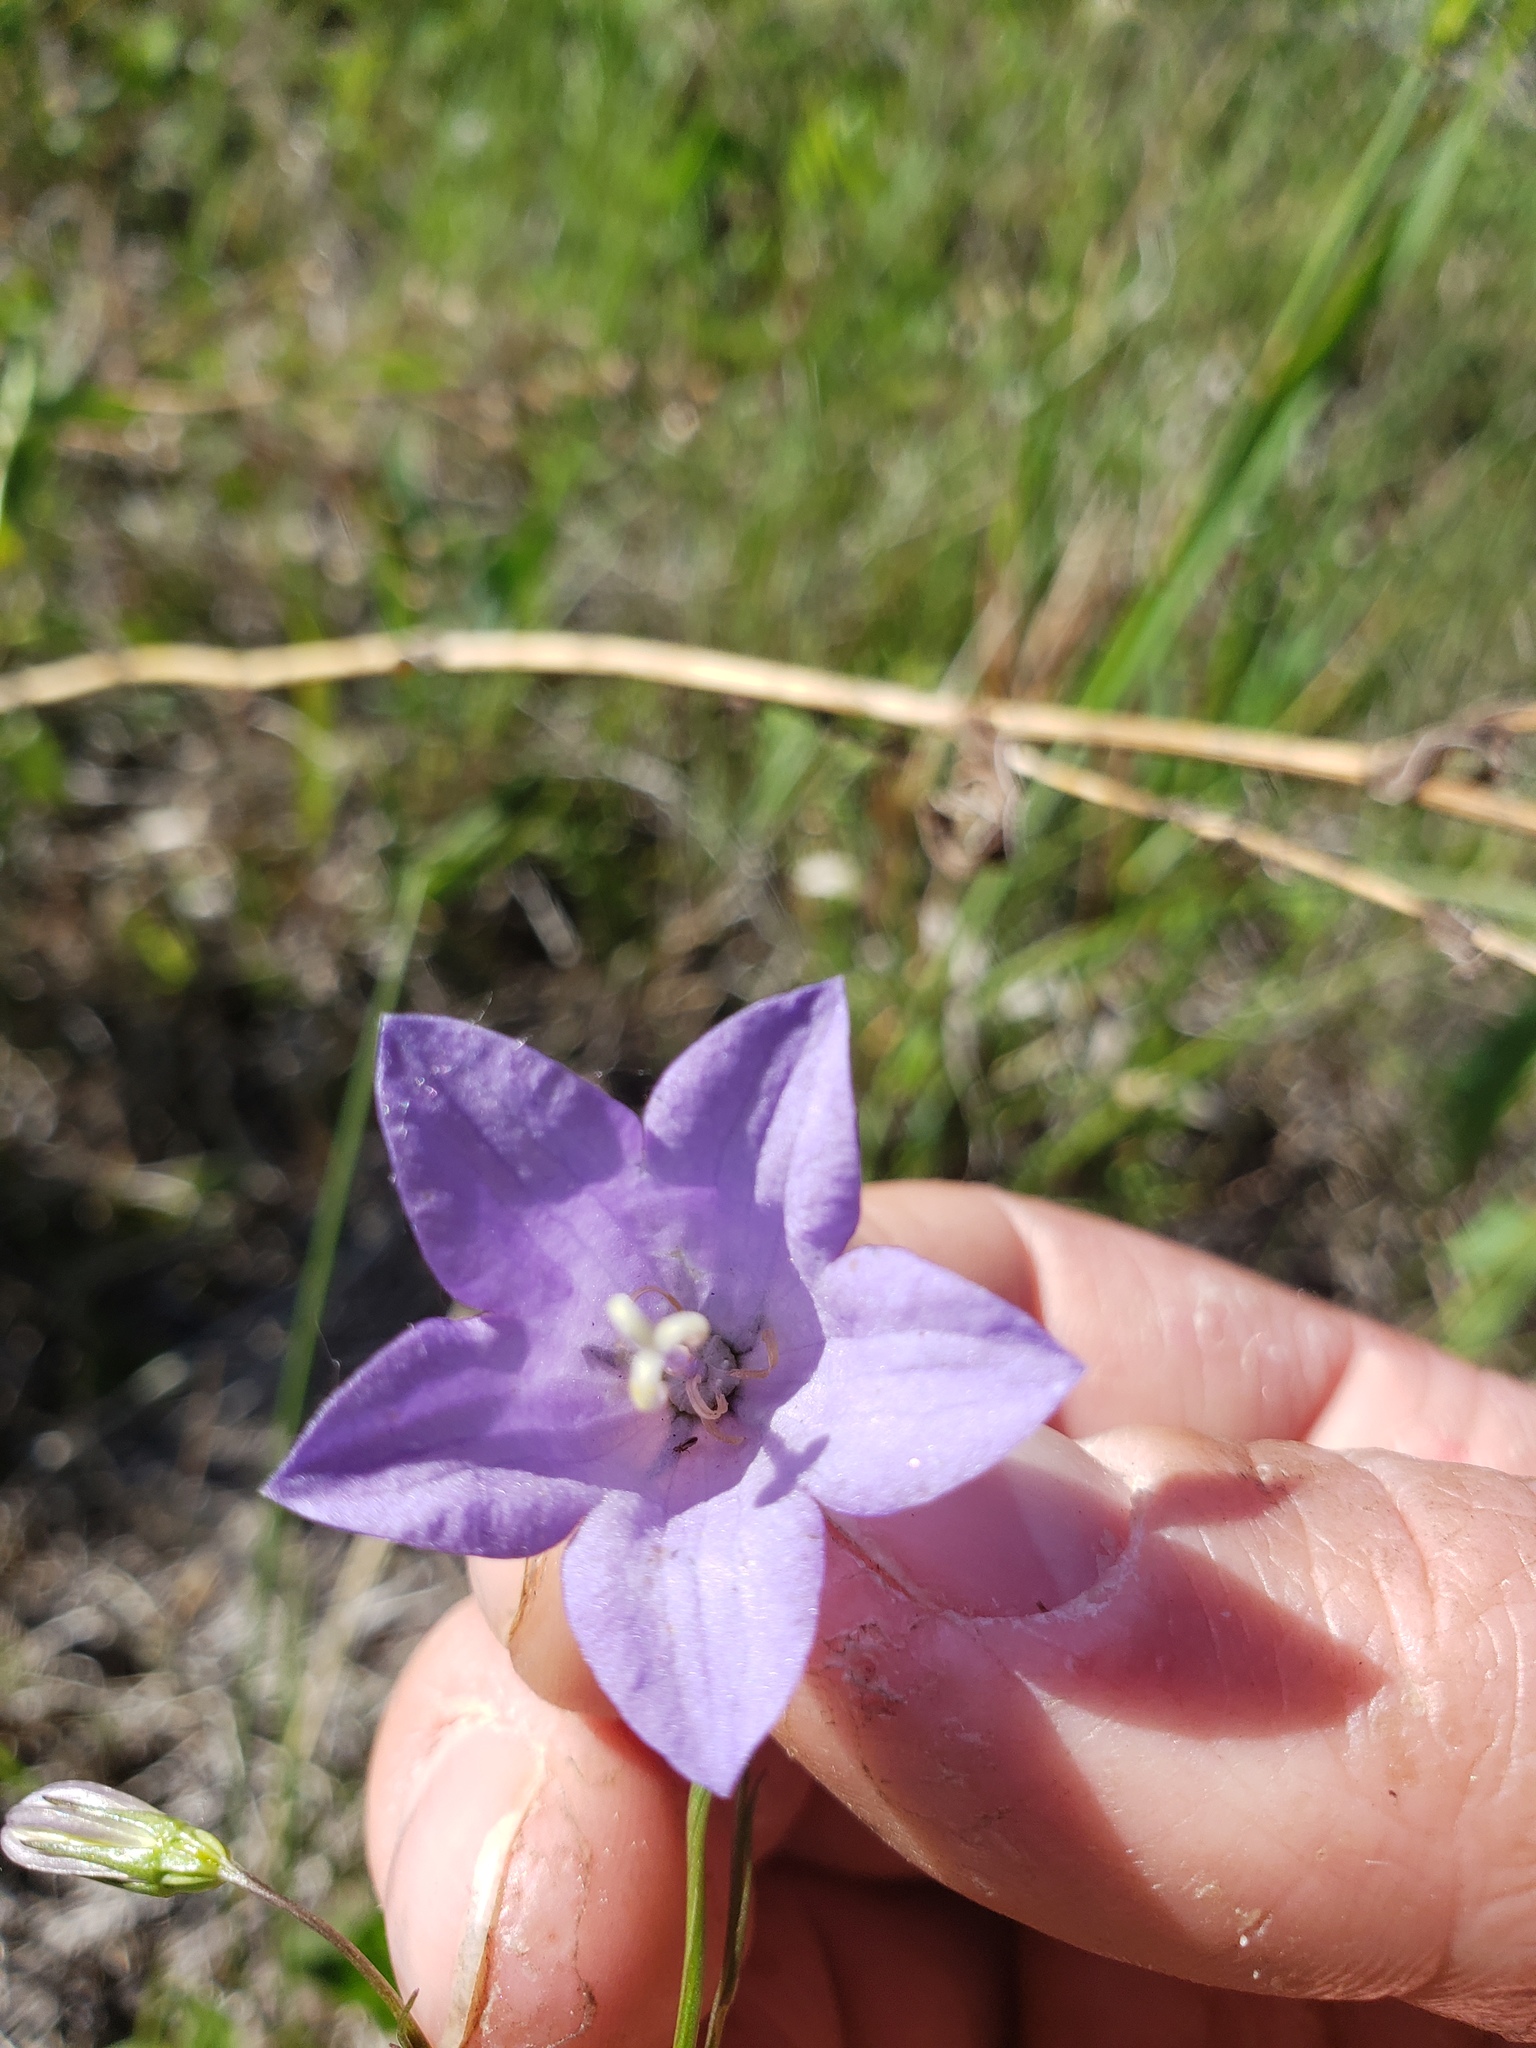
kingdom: Plantae
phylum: Tracheophyta
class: Magnoliopsida
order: Asterales
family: Campanulaceae
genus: Campanula
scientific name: Campanula petiolata
